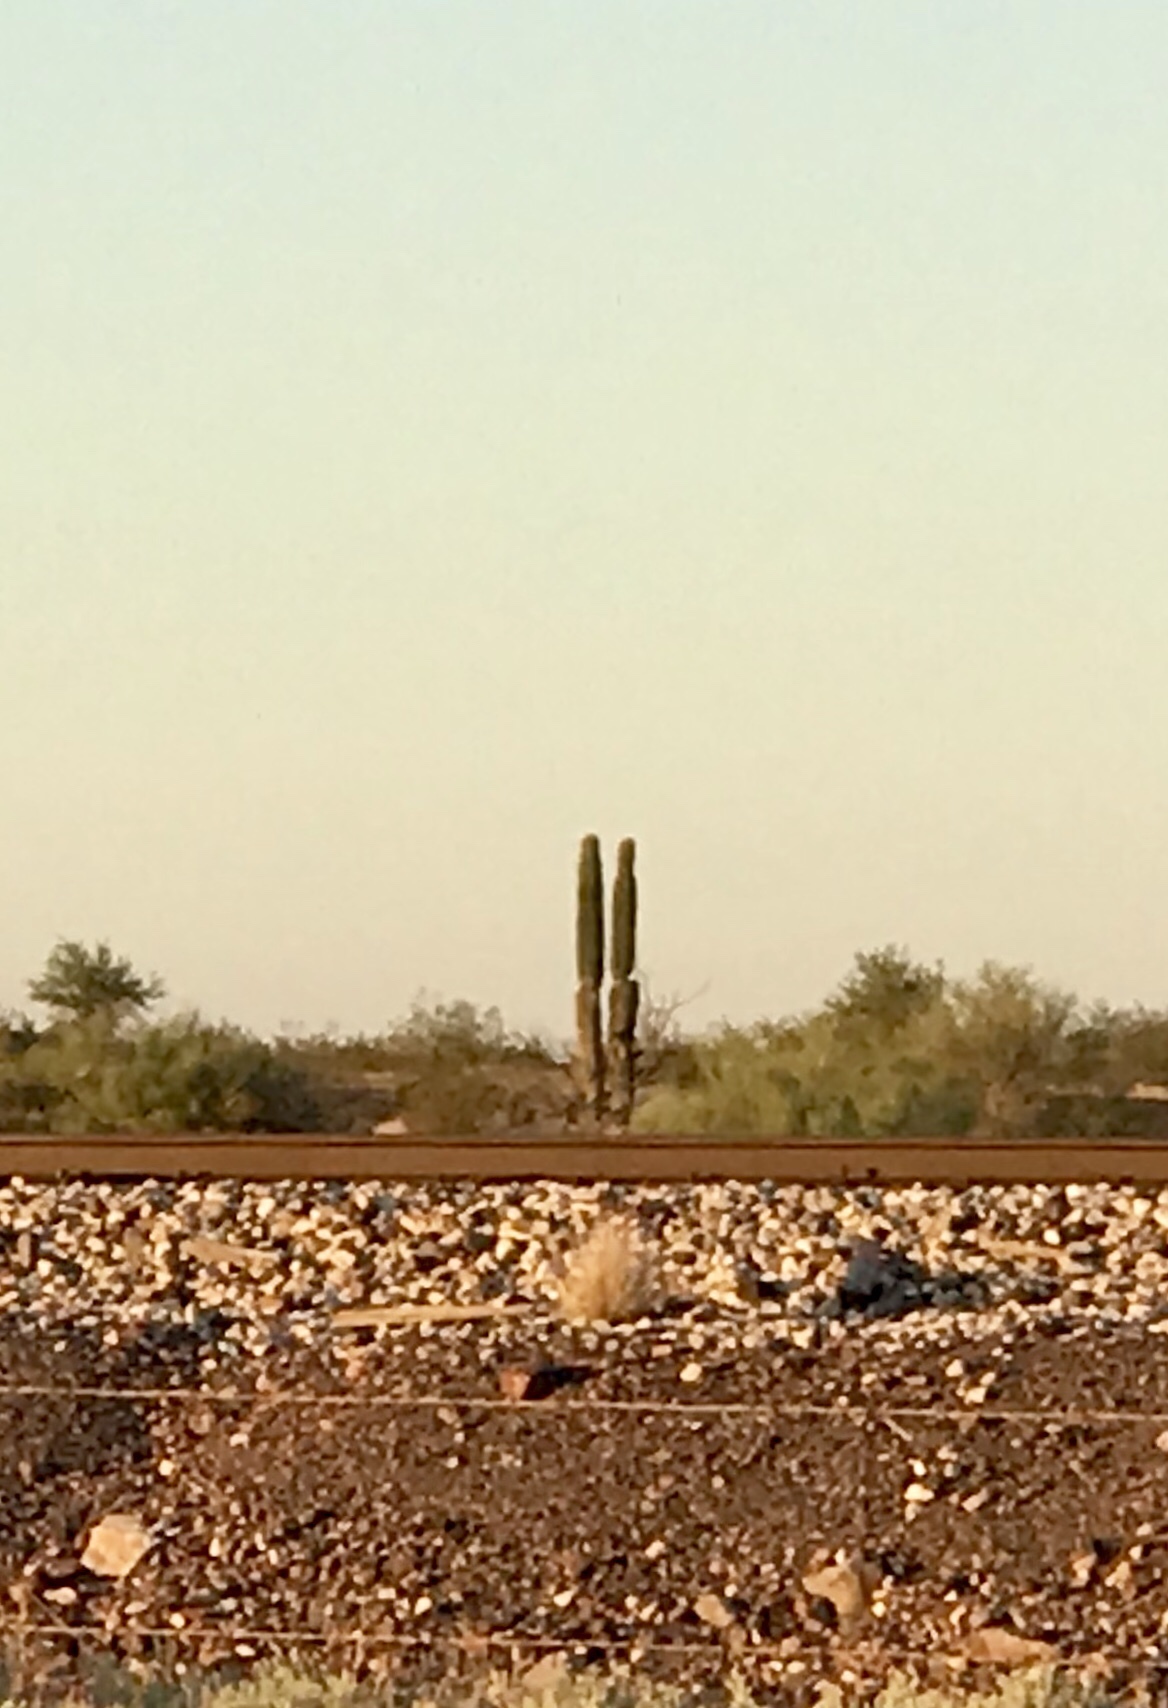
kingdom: Plantae
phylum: Tracheophyta
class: Magnoliopsida
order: Caryophyllales
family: Cactaceae
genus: Carnegiea
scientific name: Carnegiea gigantea
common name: Saguaro
